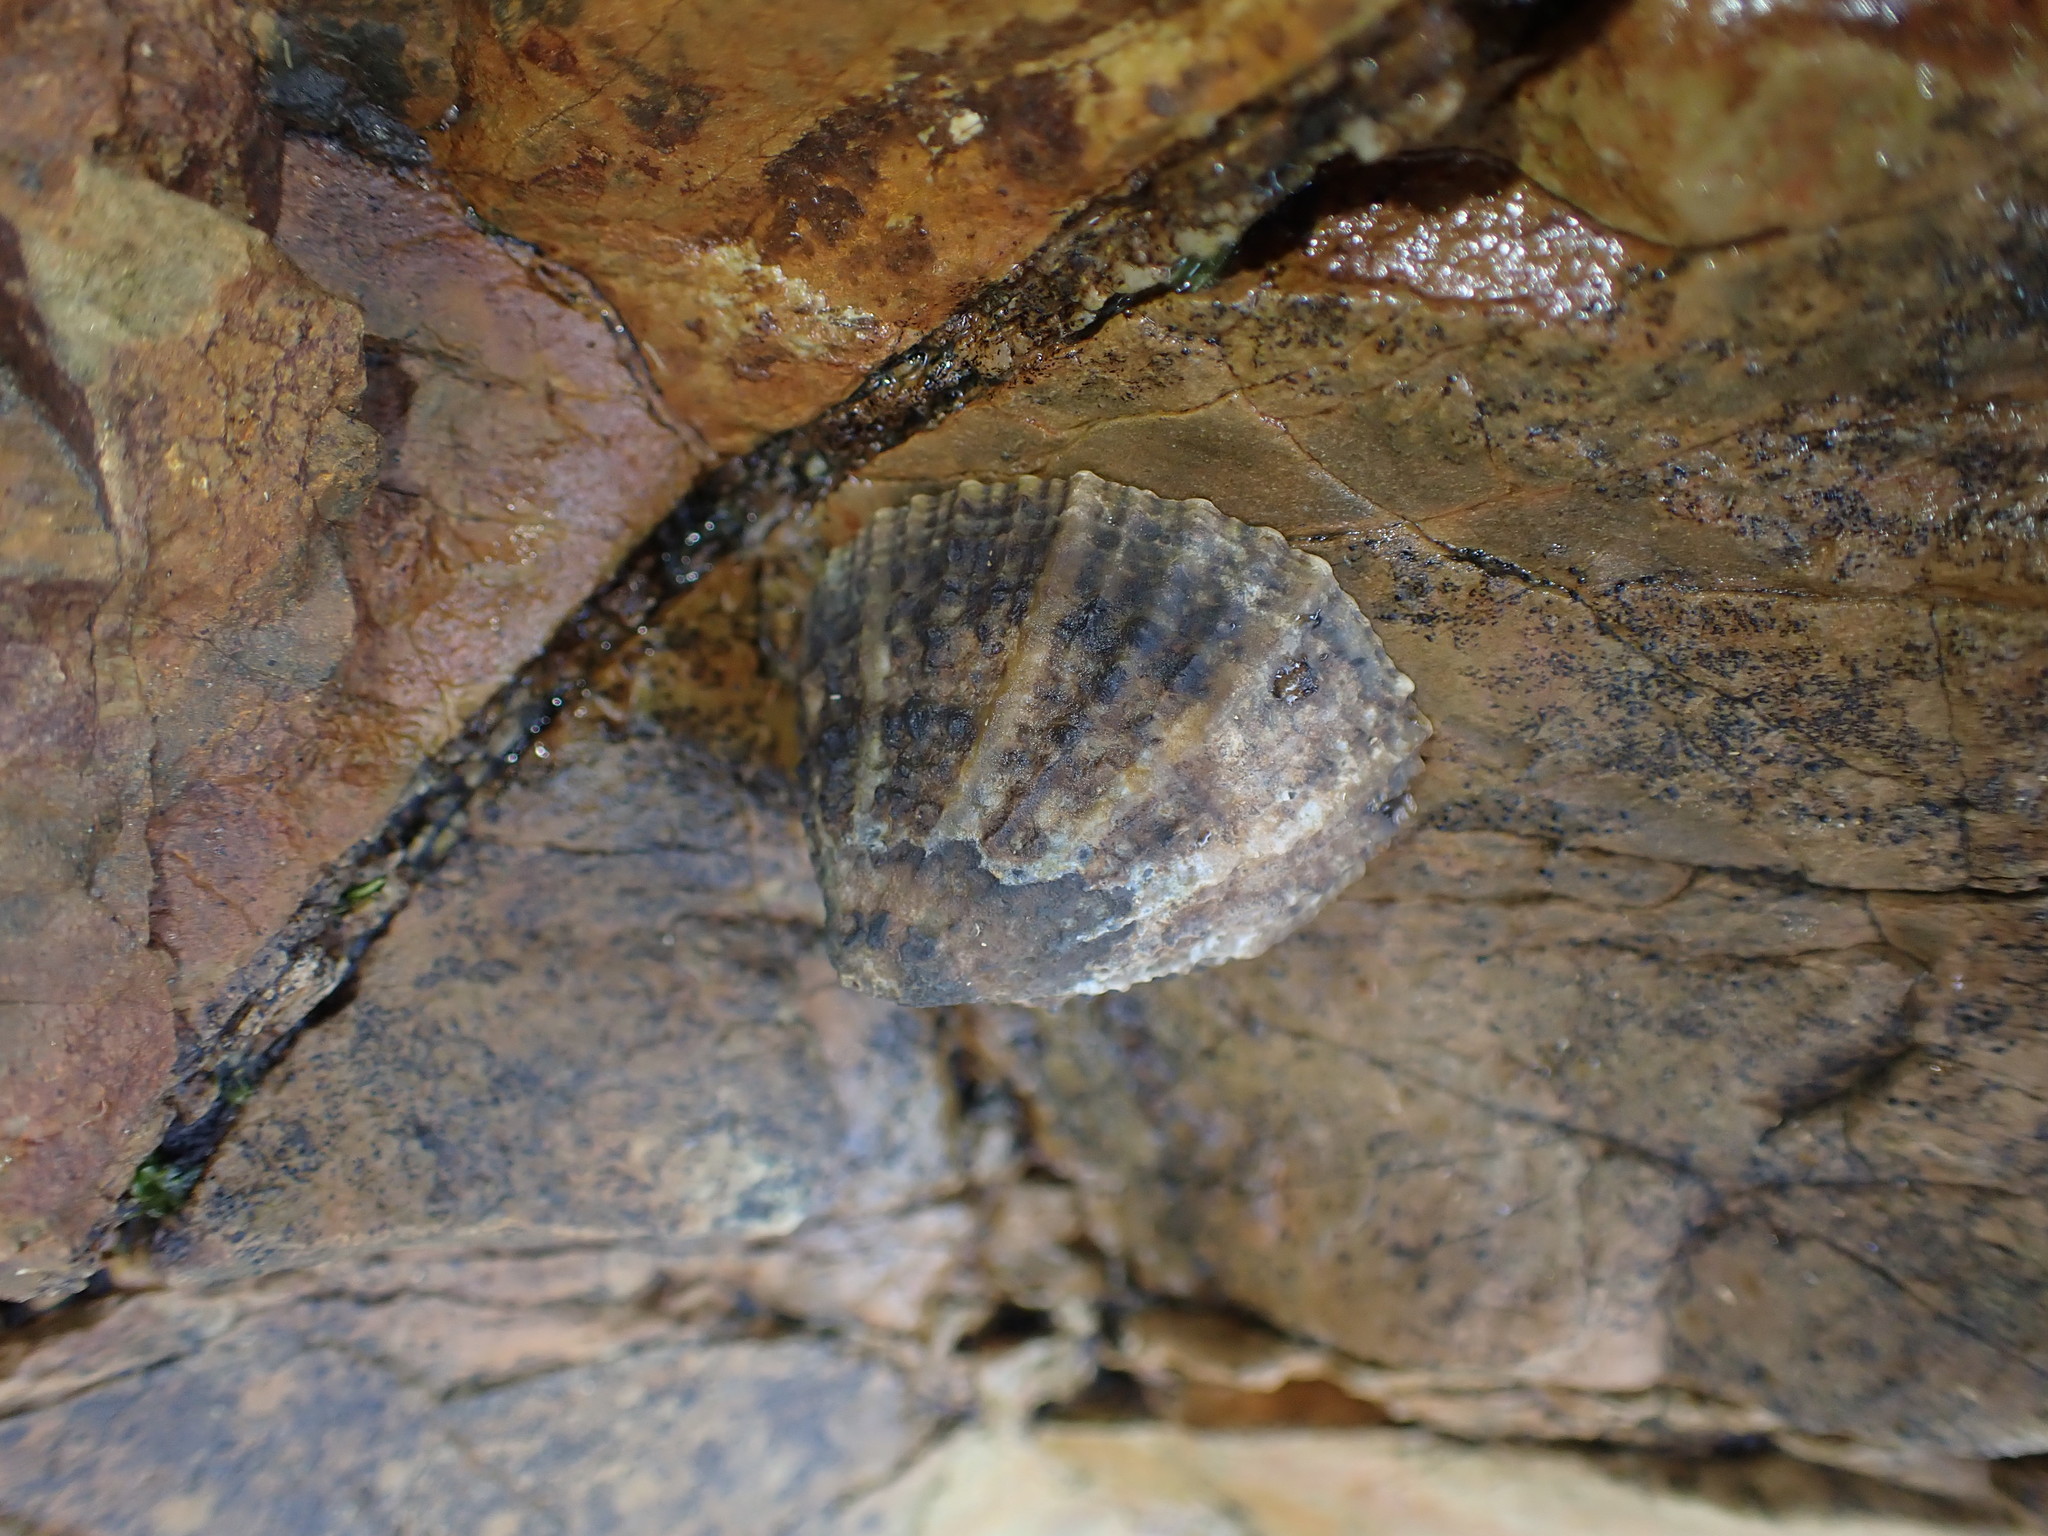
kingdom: Animalia
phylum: Mollusca
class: Gastropoda
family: Nacellidae
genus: Cellana
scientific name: Cellana ornata
